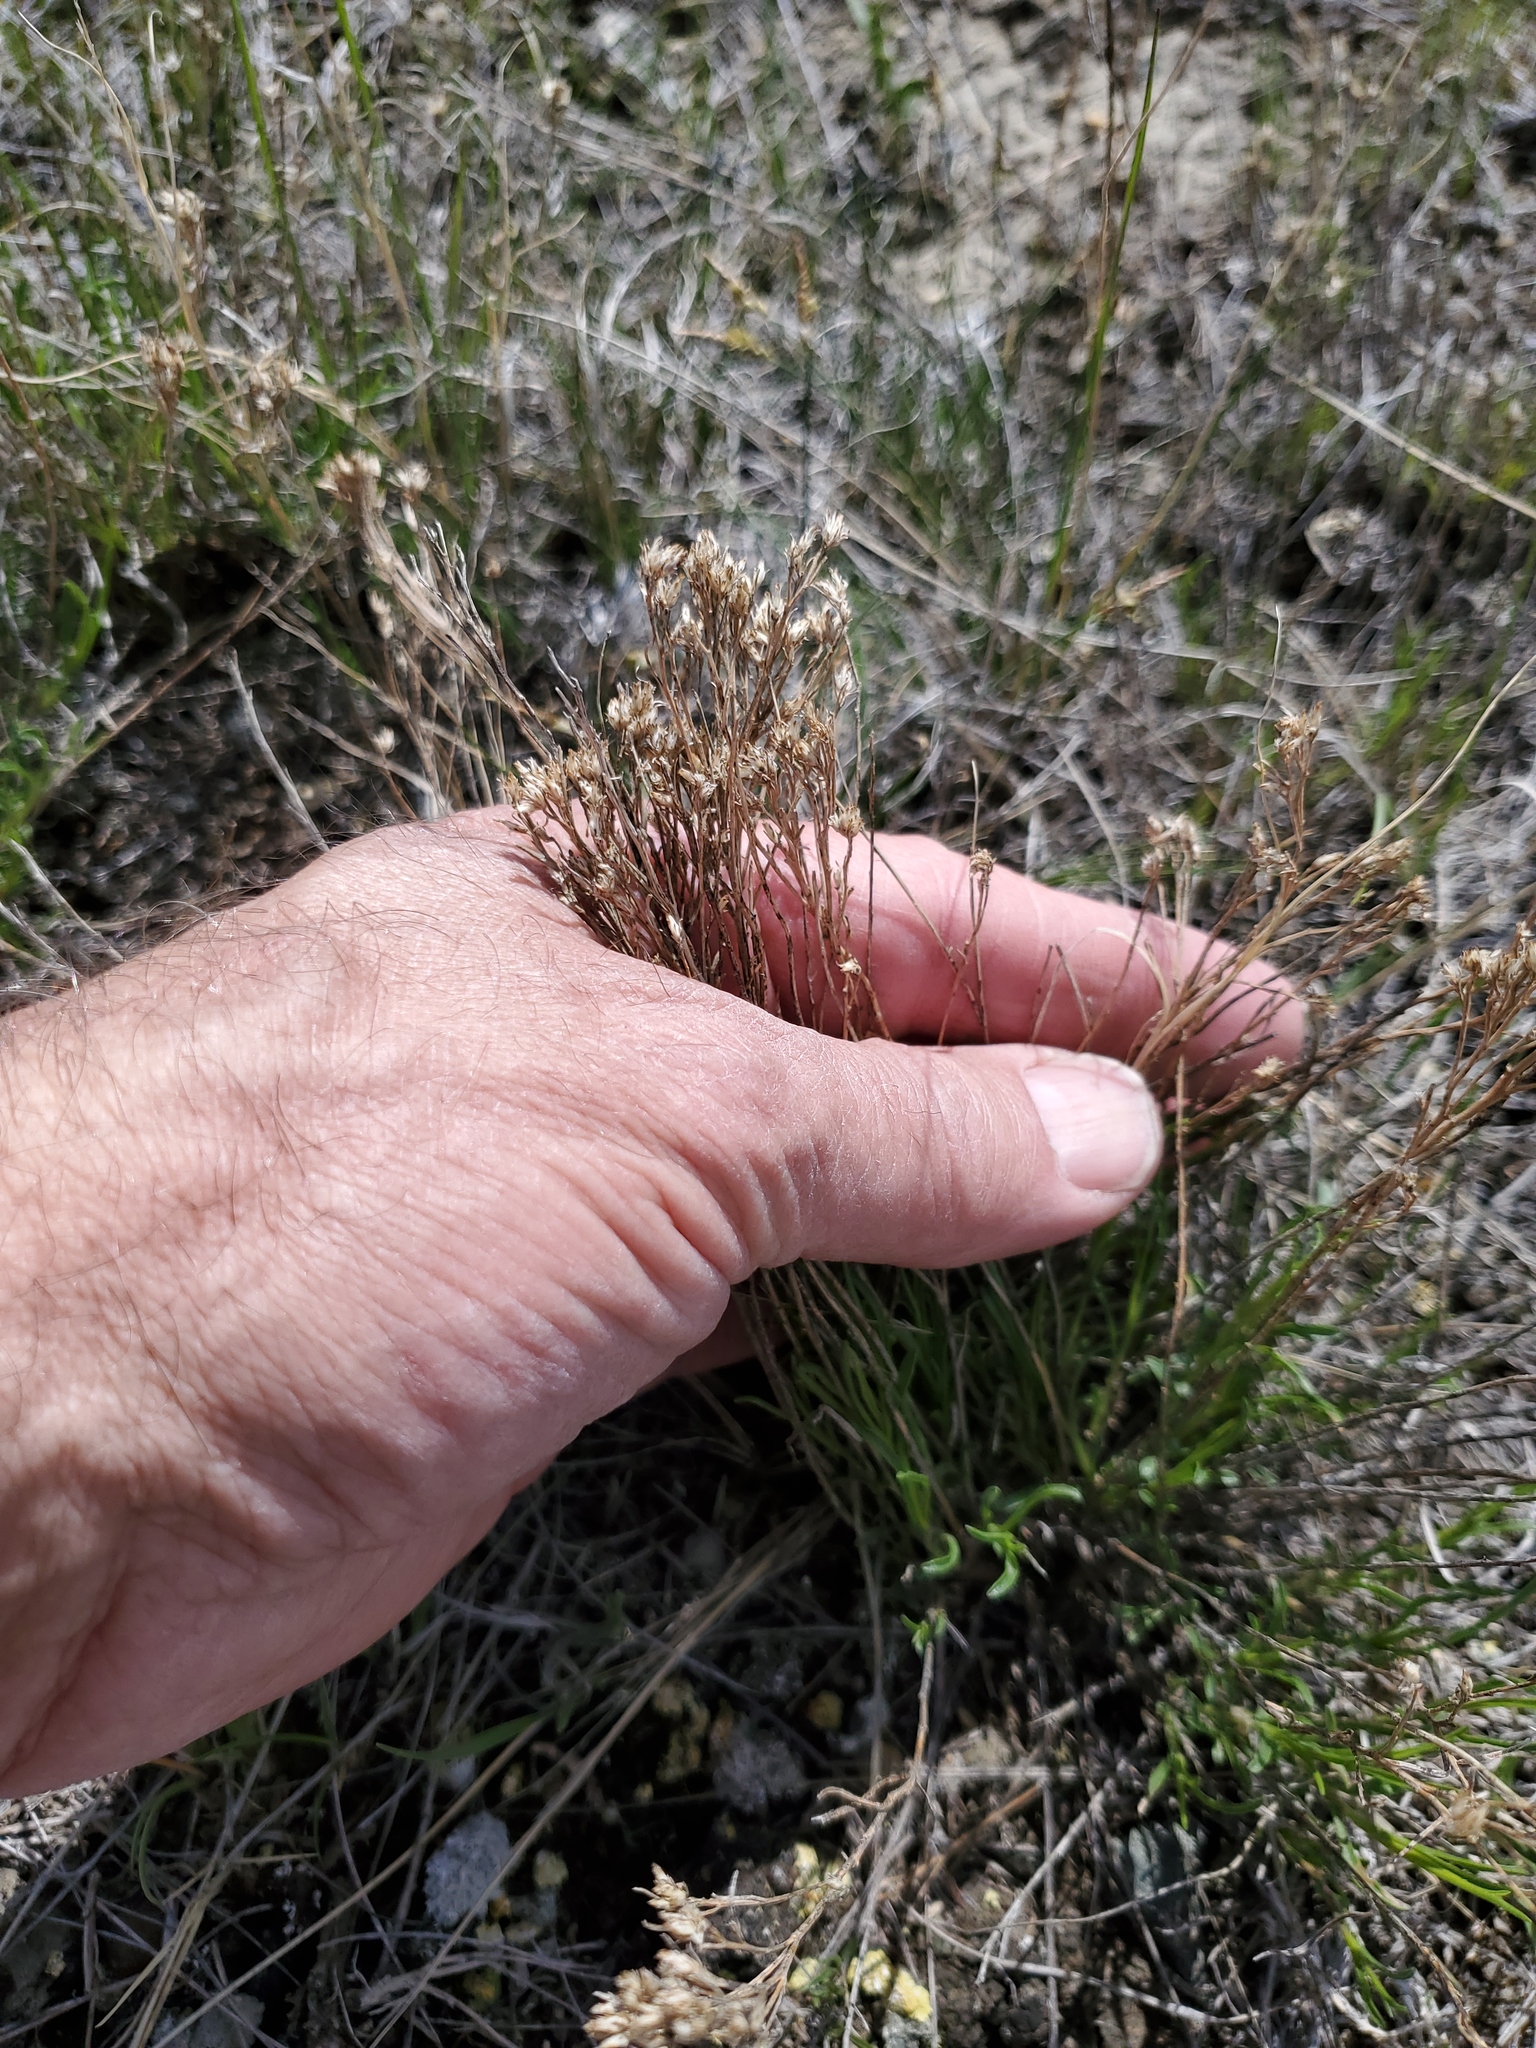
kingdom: Plantae
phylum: Tracheophyta
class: Magnoliopsida
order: Asterales
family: Asteraceae
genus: Gutierrezia
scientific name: Gutierrezia sarothrae
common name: Broom snakeweed
